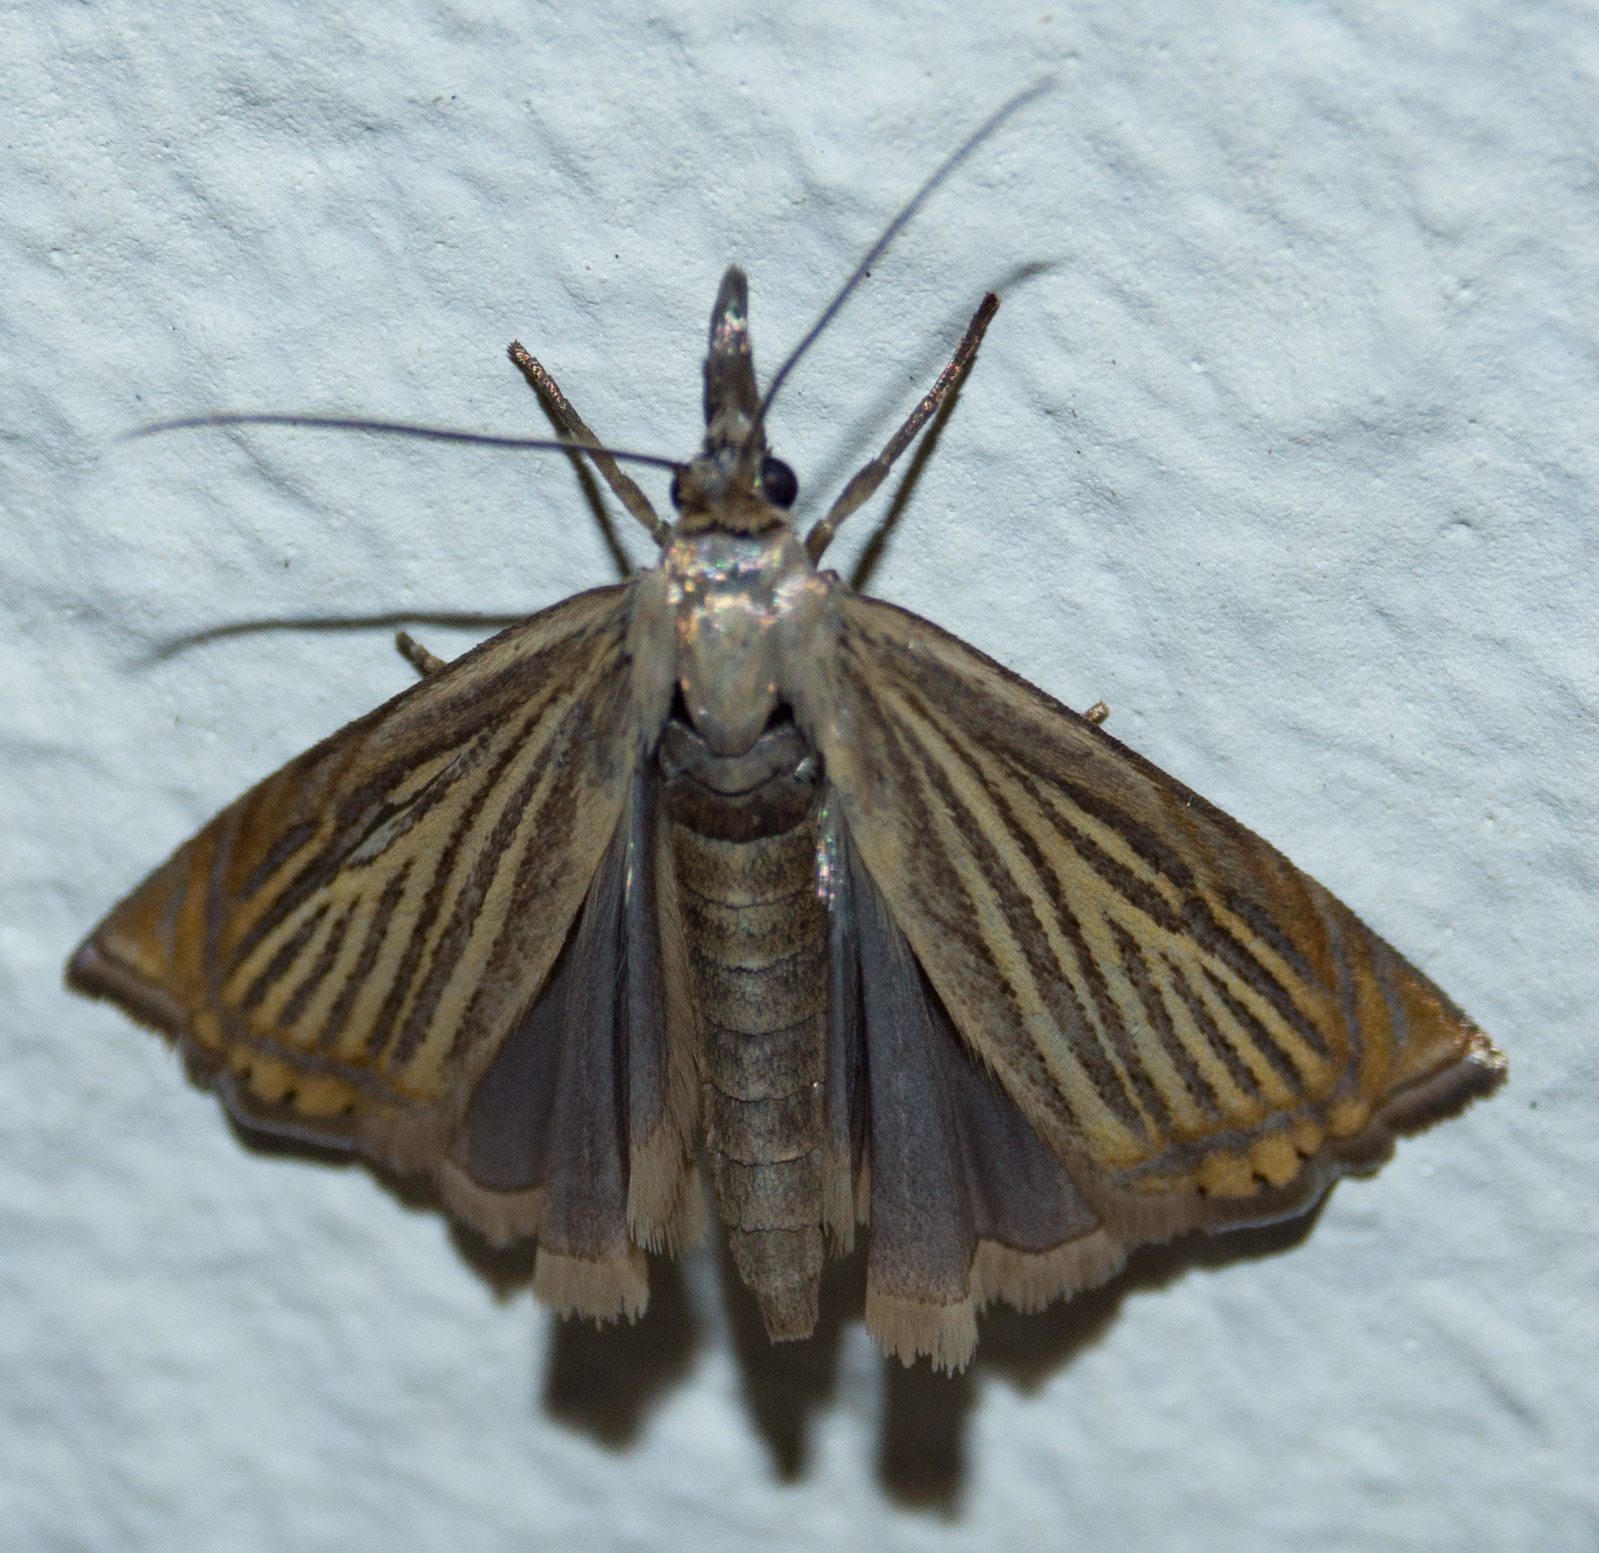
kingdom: Animalia
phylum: Arthropoda
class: Insecta
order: Lepidoptera
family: Crambidae
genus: Chrysoteuchia
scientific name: Chrysoteuchia culmella
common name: Garden grass-veneer
